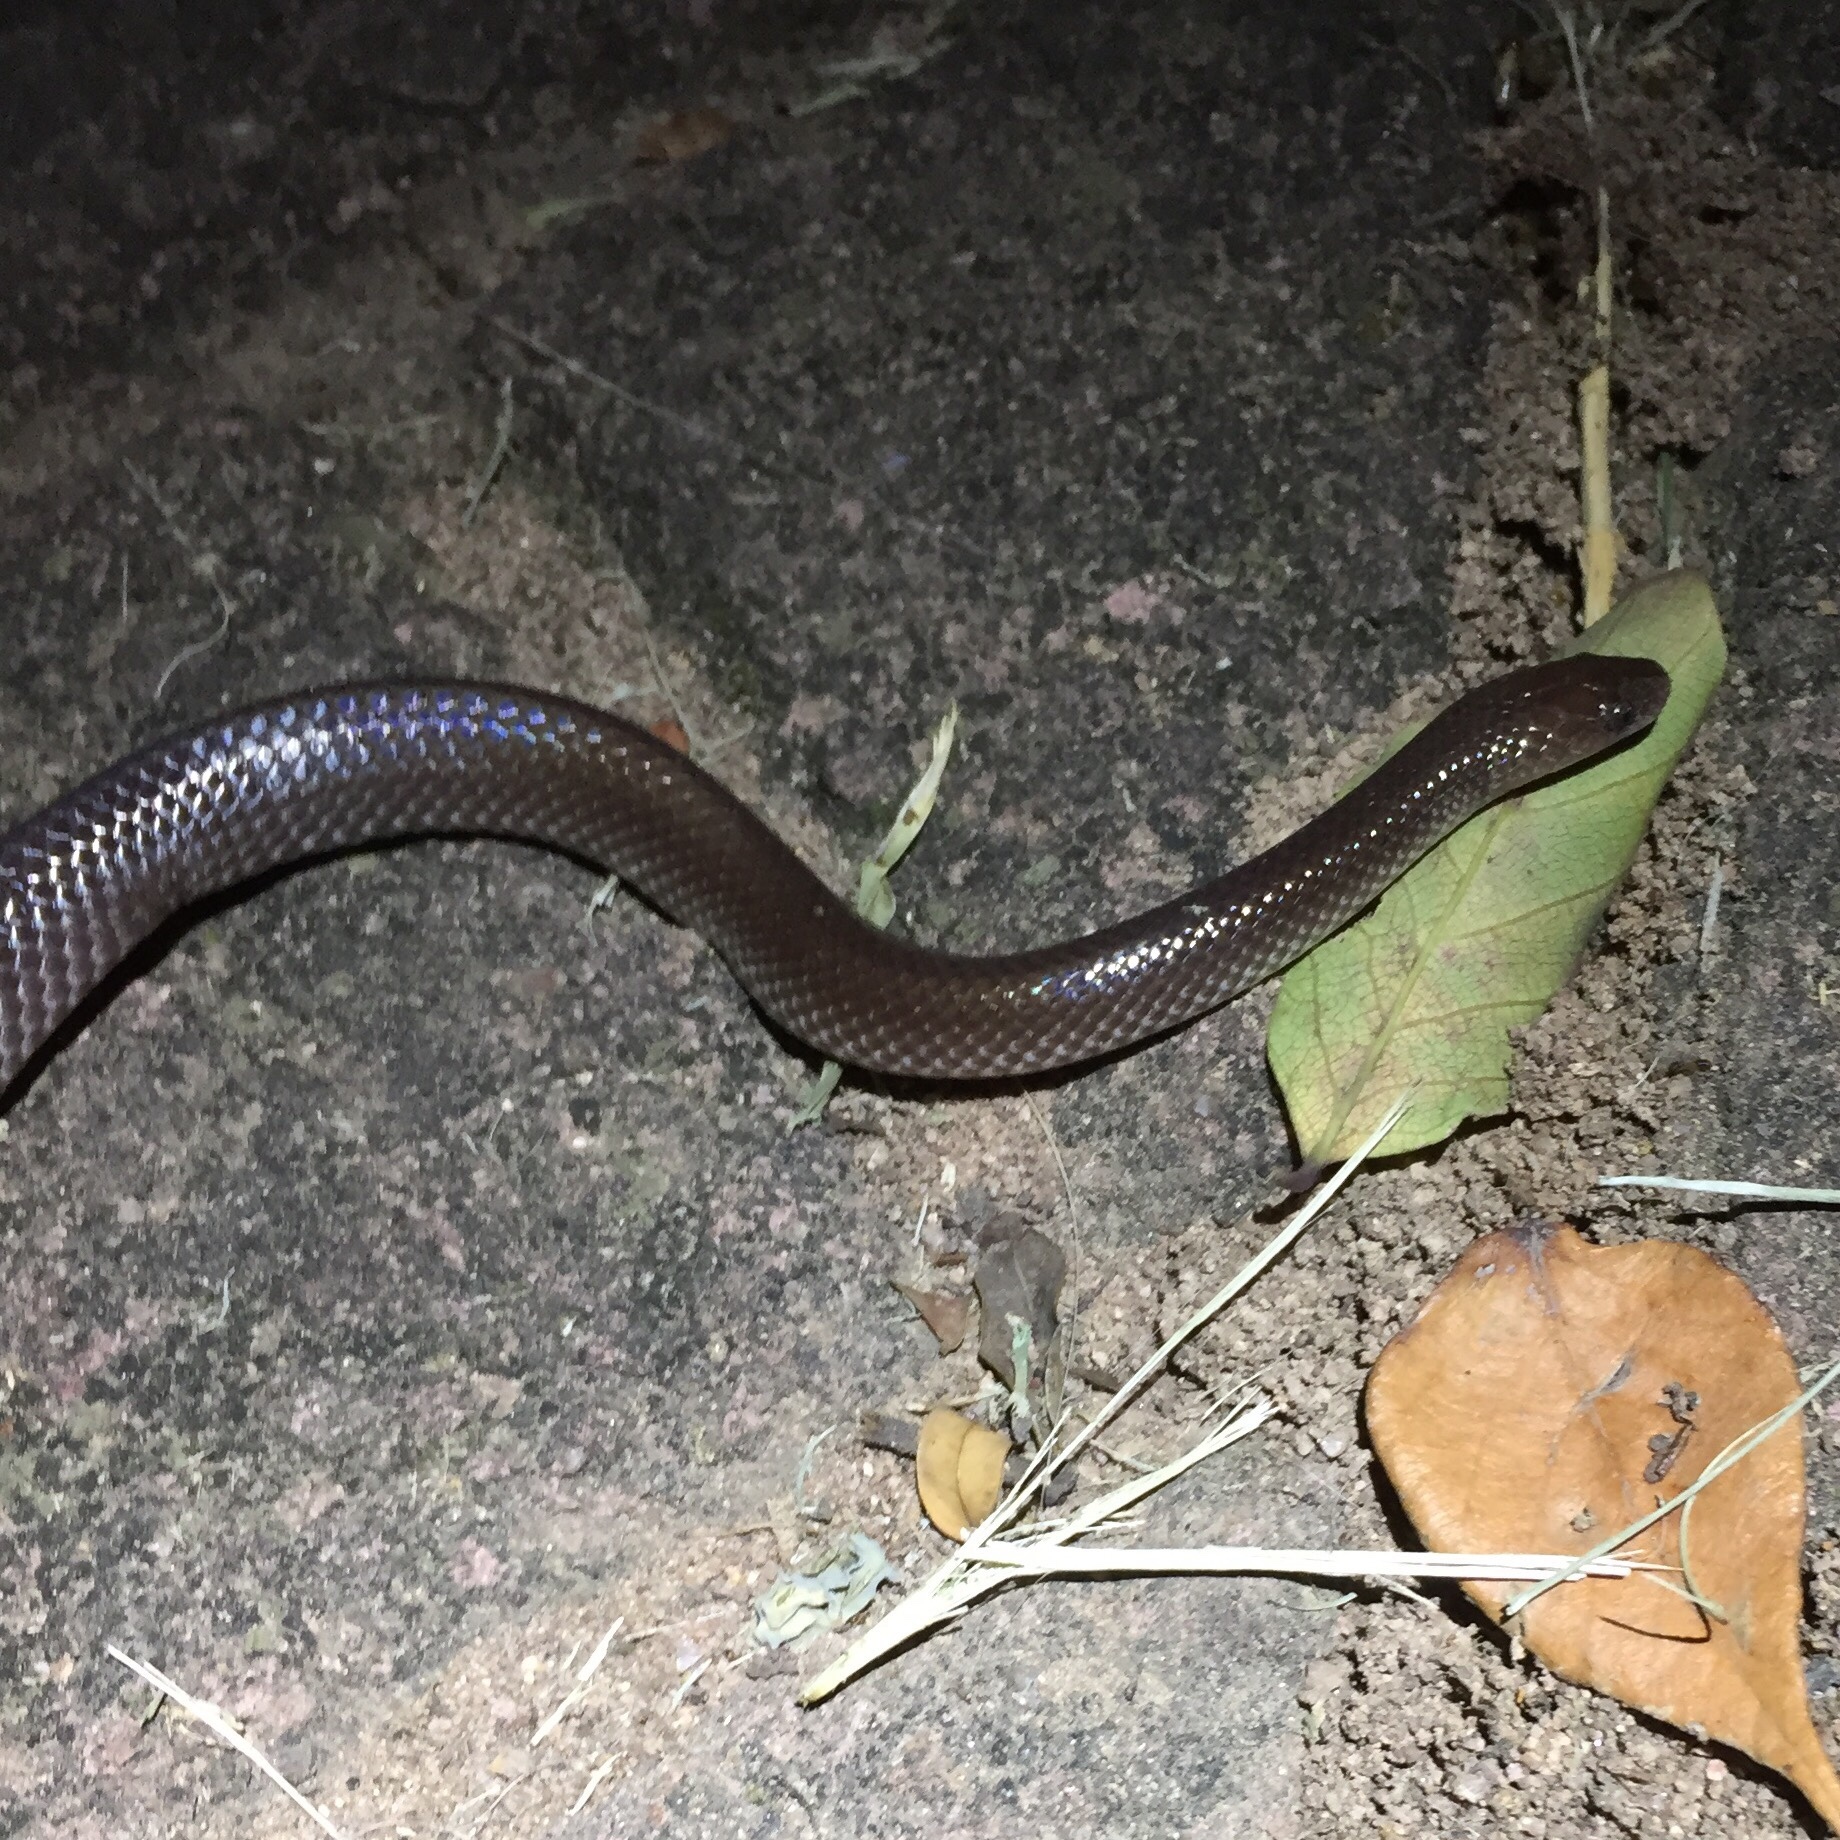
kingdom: Animalia
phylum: Chordata
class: Squamata
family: Lamprophiidae
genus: Lycophidion
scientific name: Lycophidion capense
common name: Cape wolf snake
